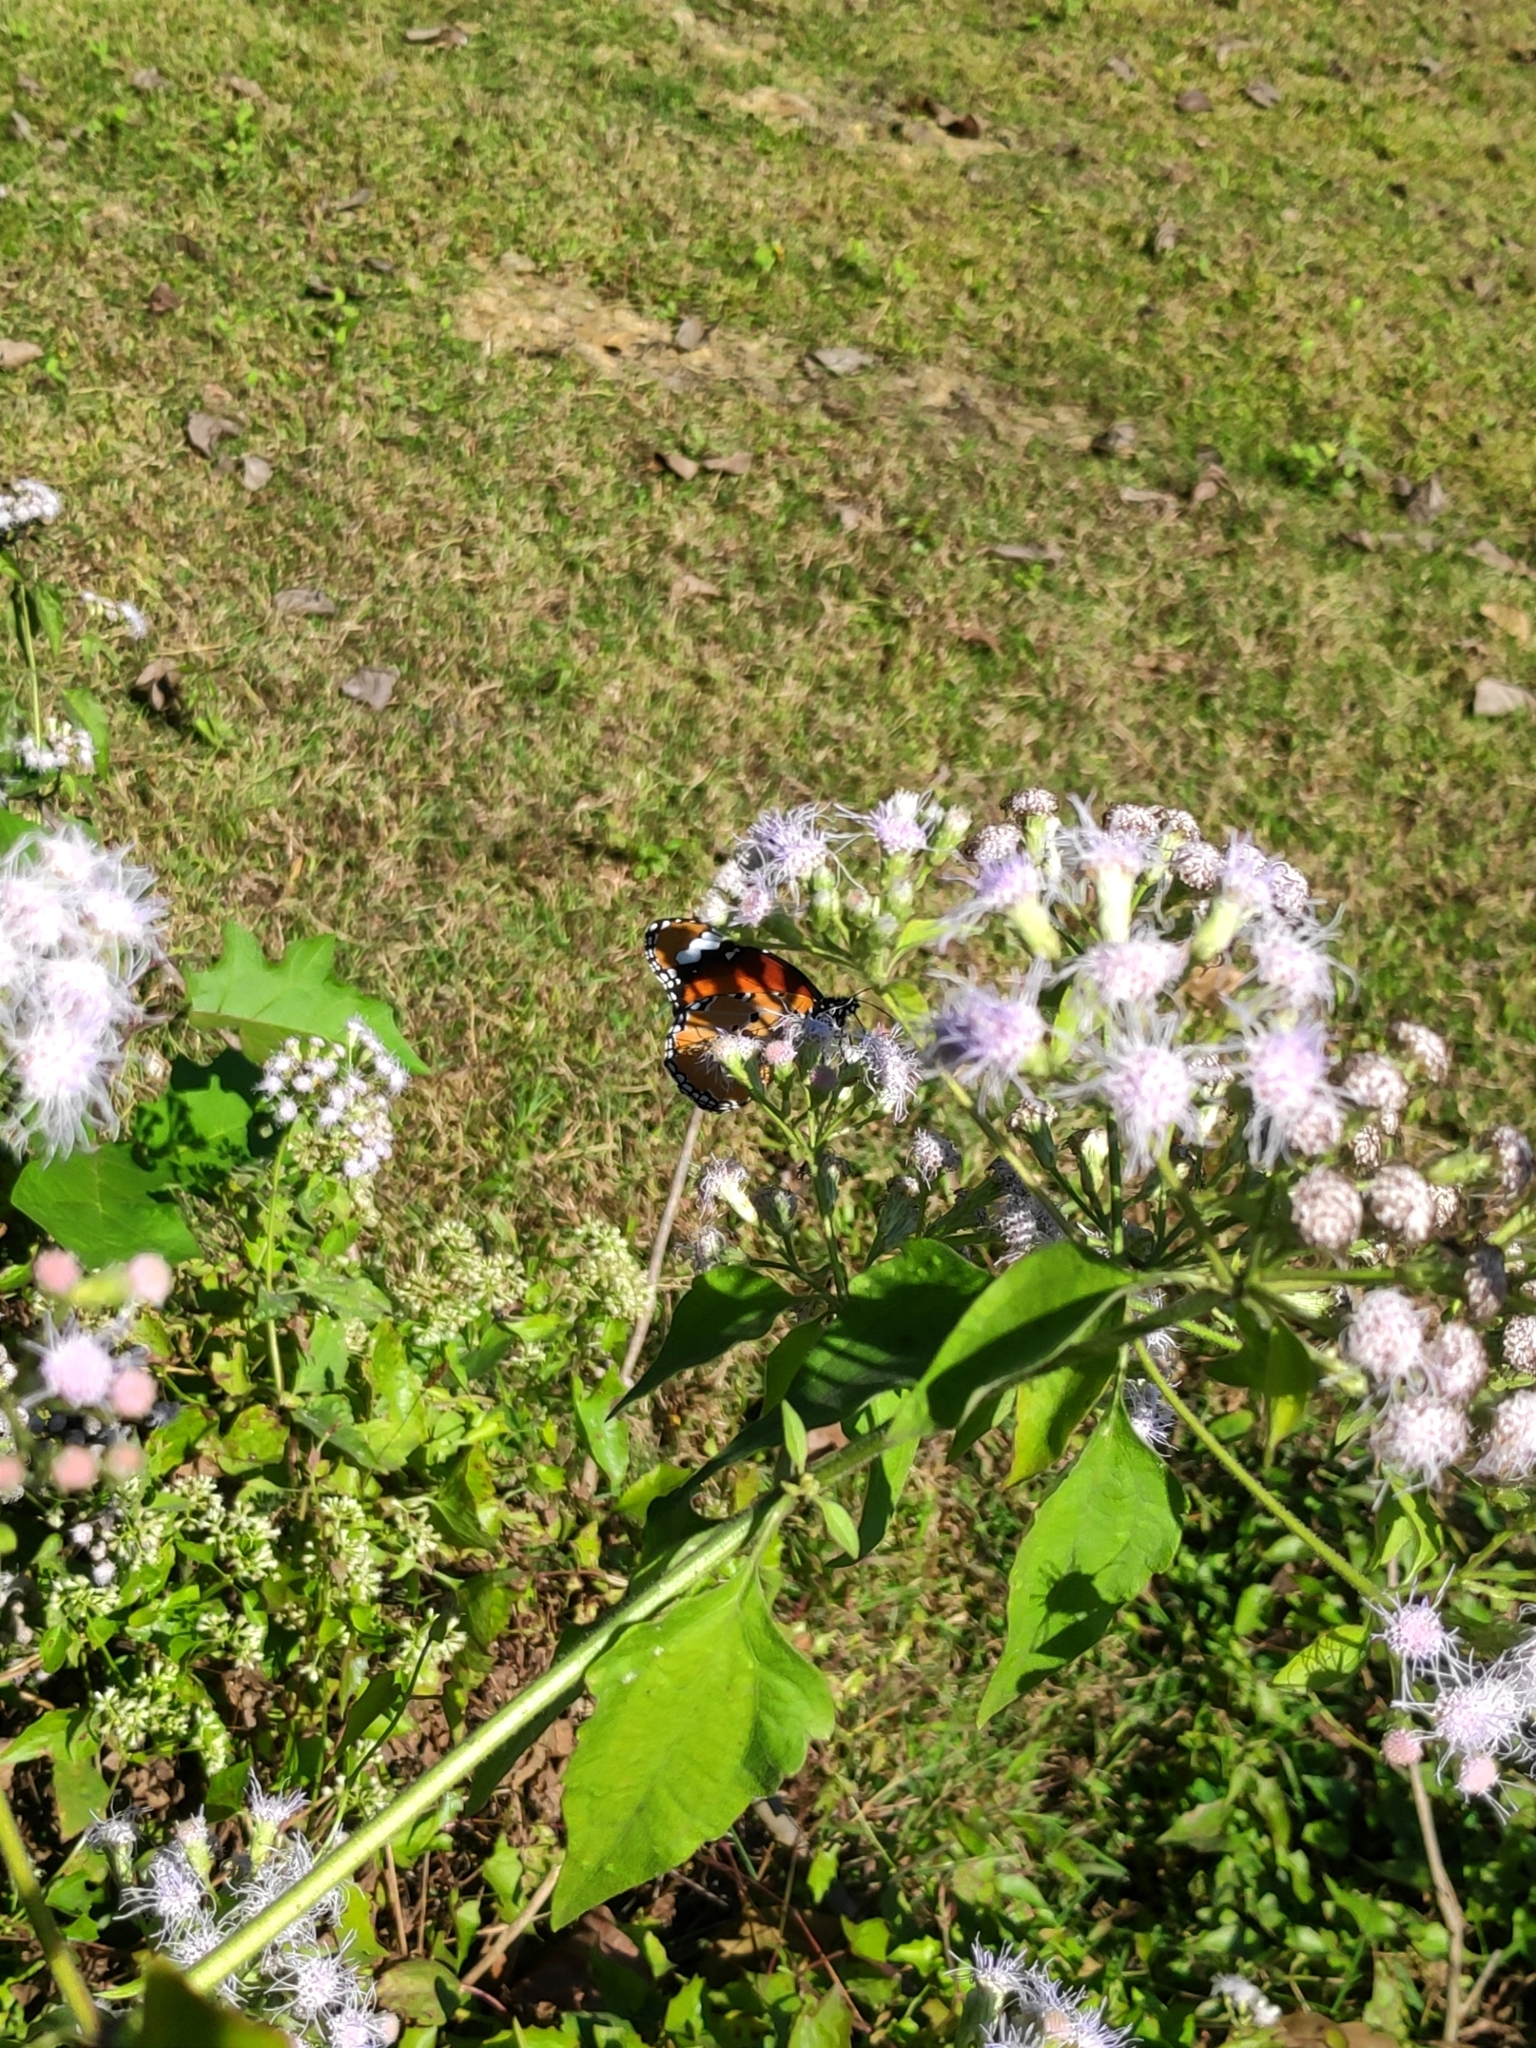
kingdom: Animalia
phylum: Arthropoda
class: Insecta
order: Lepidoptera
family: Nymphalidae
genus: Danaus
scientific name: Danaus chrysippus
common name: Plain tiger
